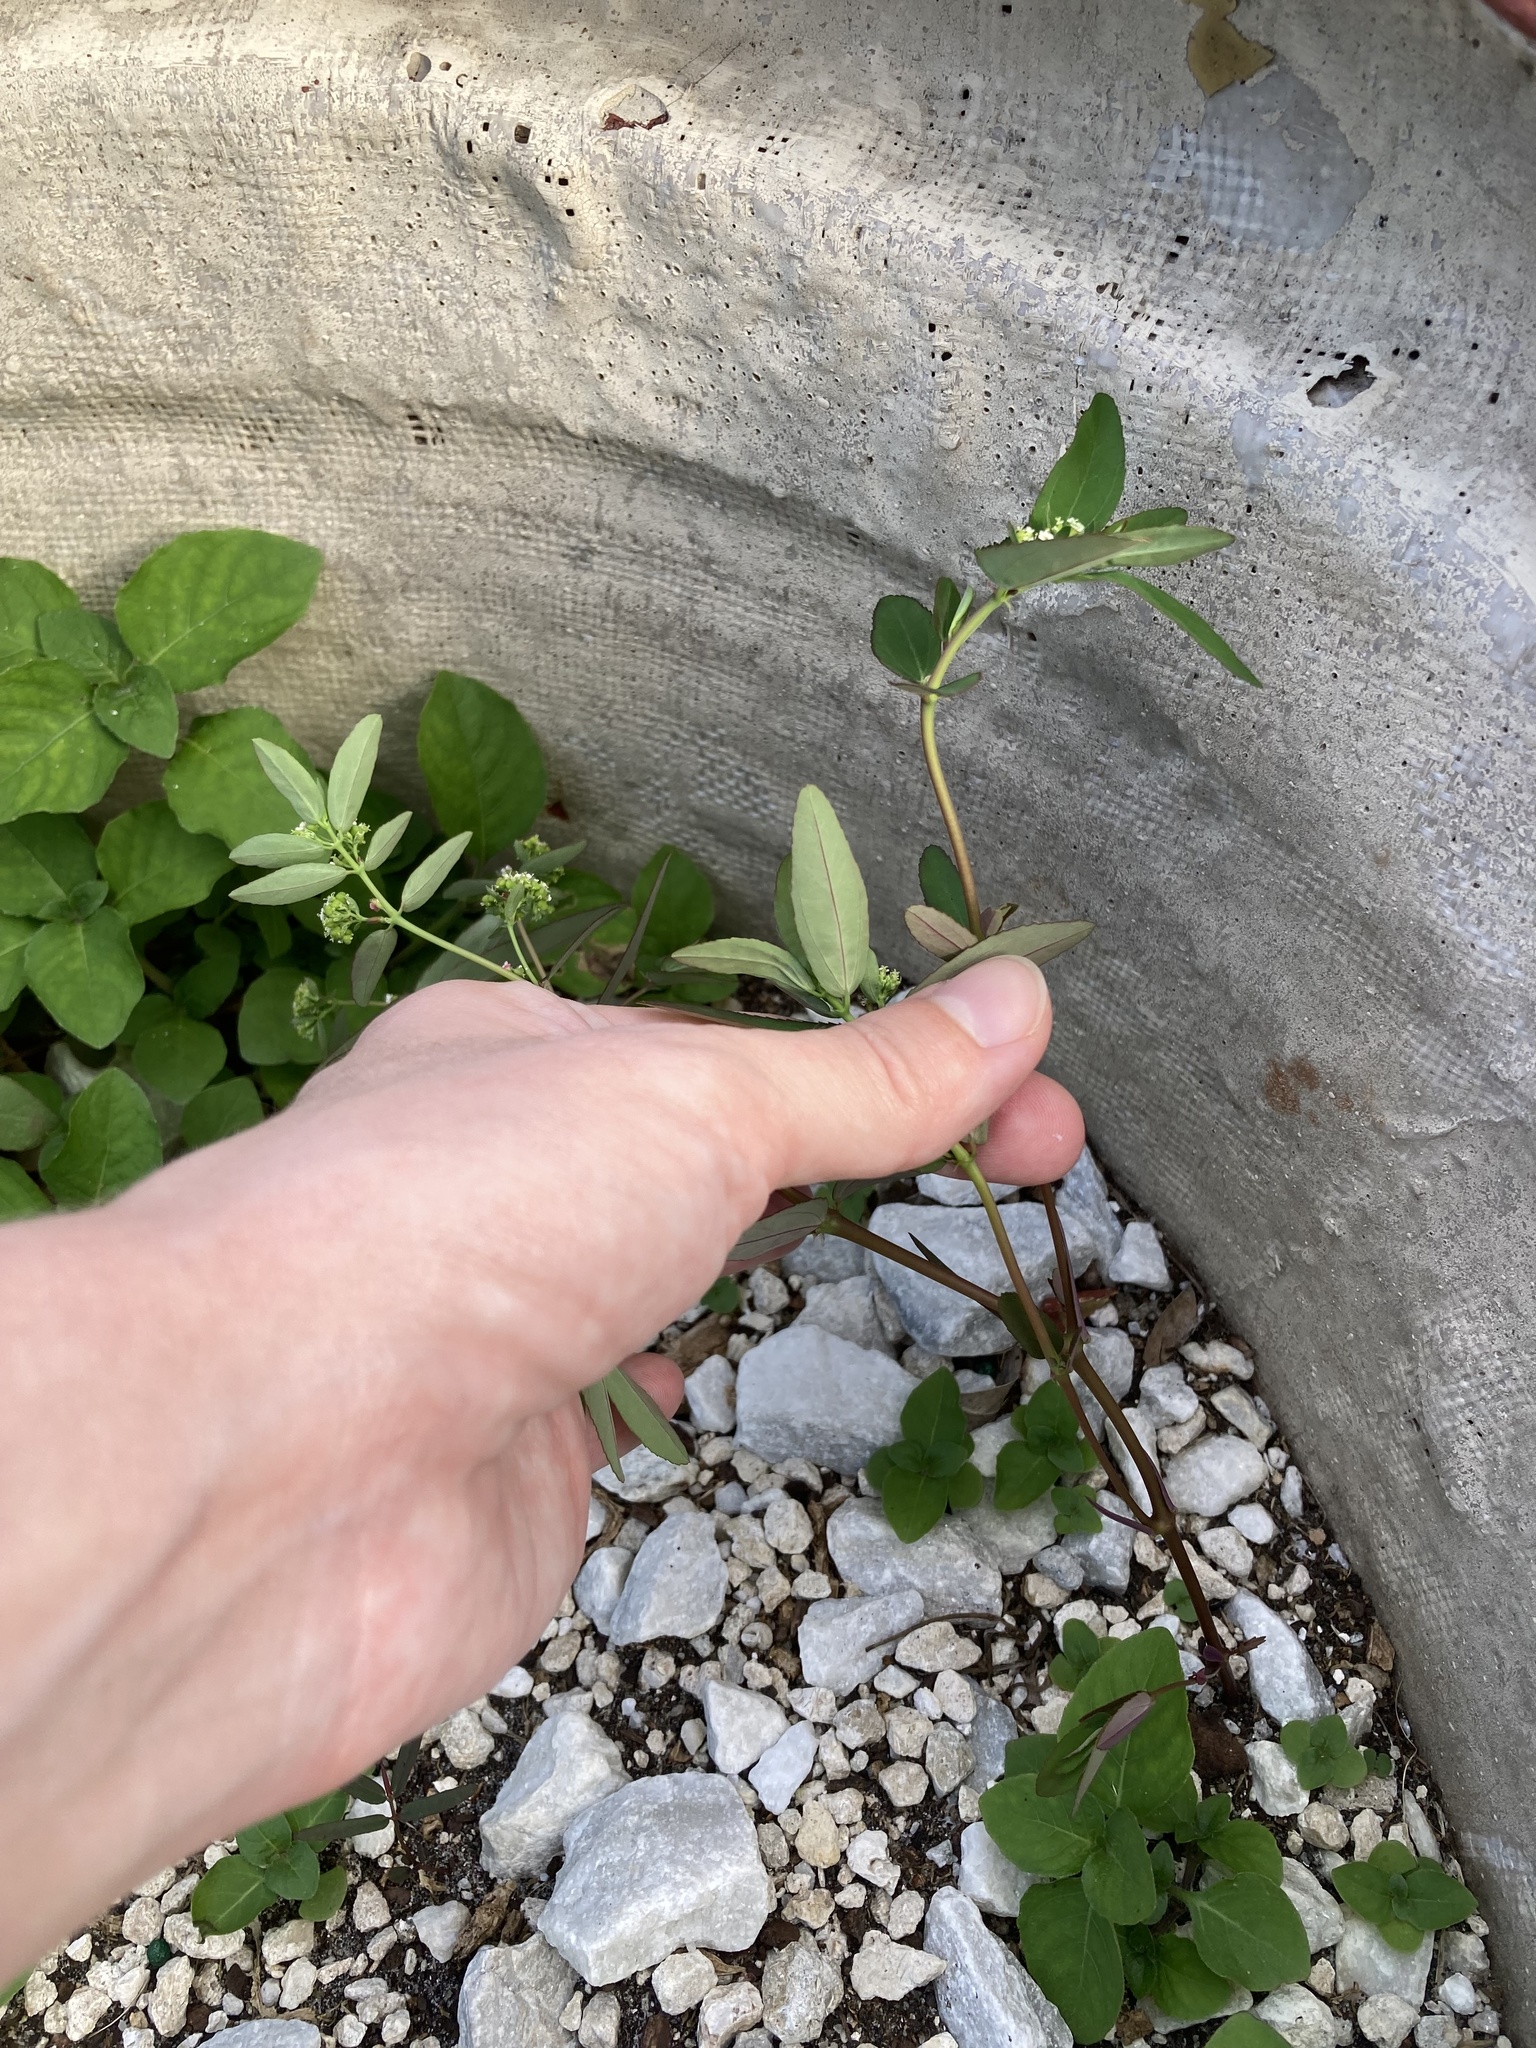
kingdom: Plantae
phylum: Tracheophyta
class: Magnoliopsida
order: Malpighiales
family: Euphorbiaceae
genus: Euphorbia
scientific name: Euphorbia hypericifolia
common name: Graceful sandmat
